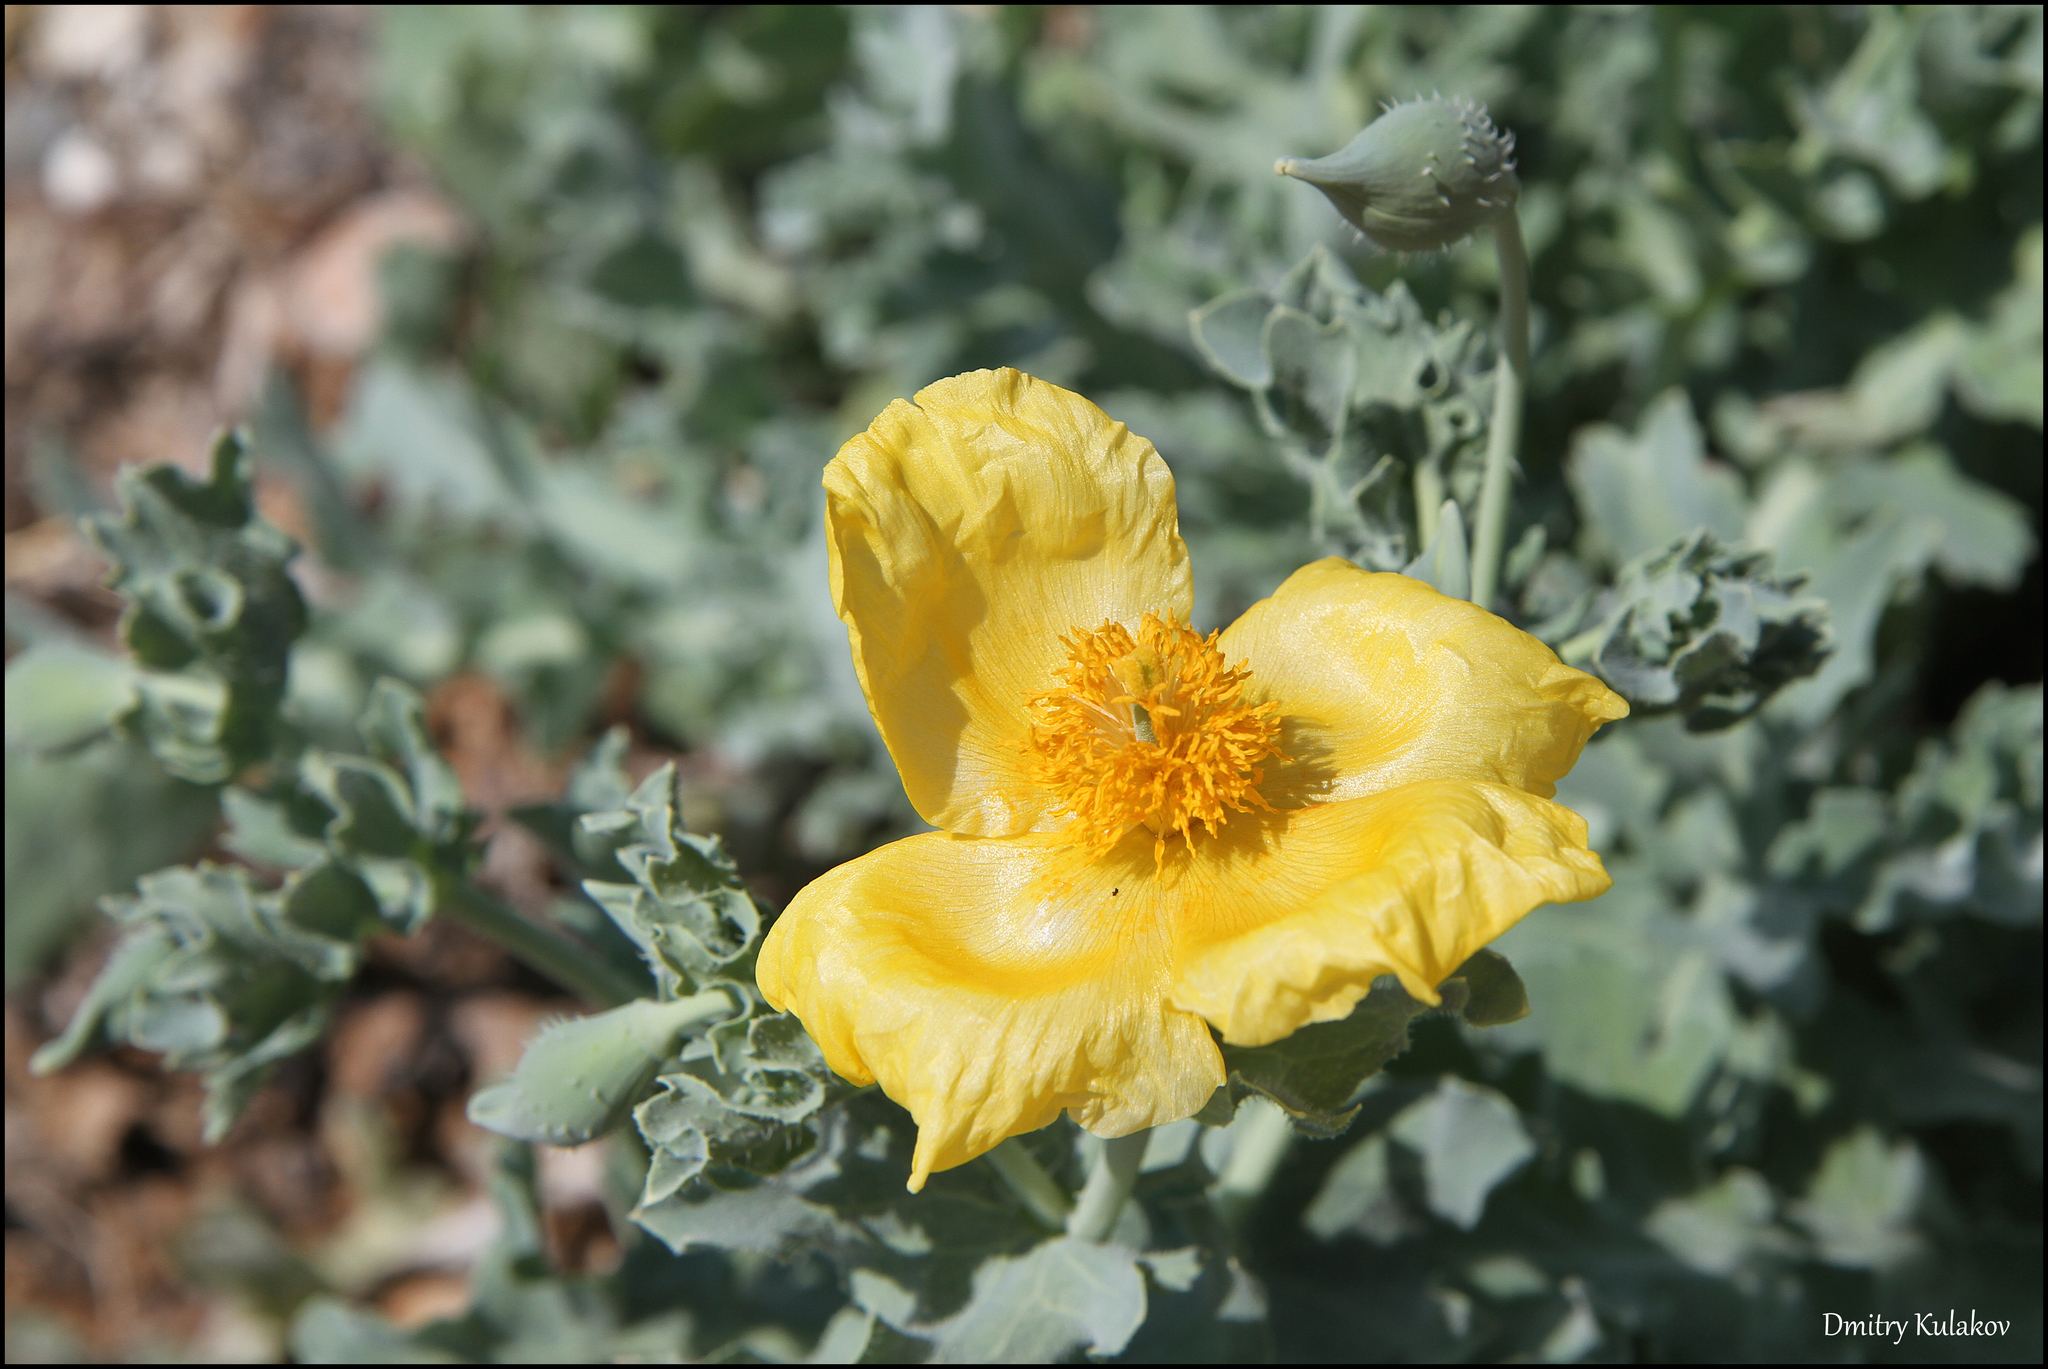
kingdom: Plantae
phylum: Tracheophyta
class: Magnoliopsida
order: Ranunculales
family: Papaveraceae
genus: Glaucium
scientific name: Glaucium flavum
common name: Yellow horned-poppy
